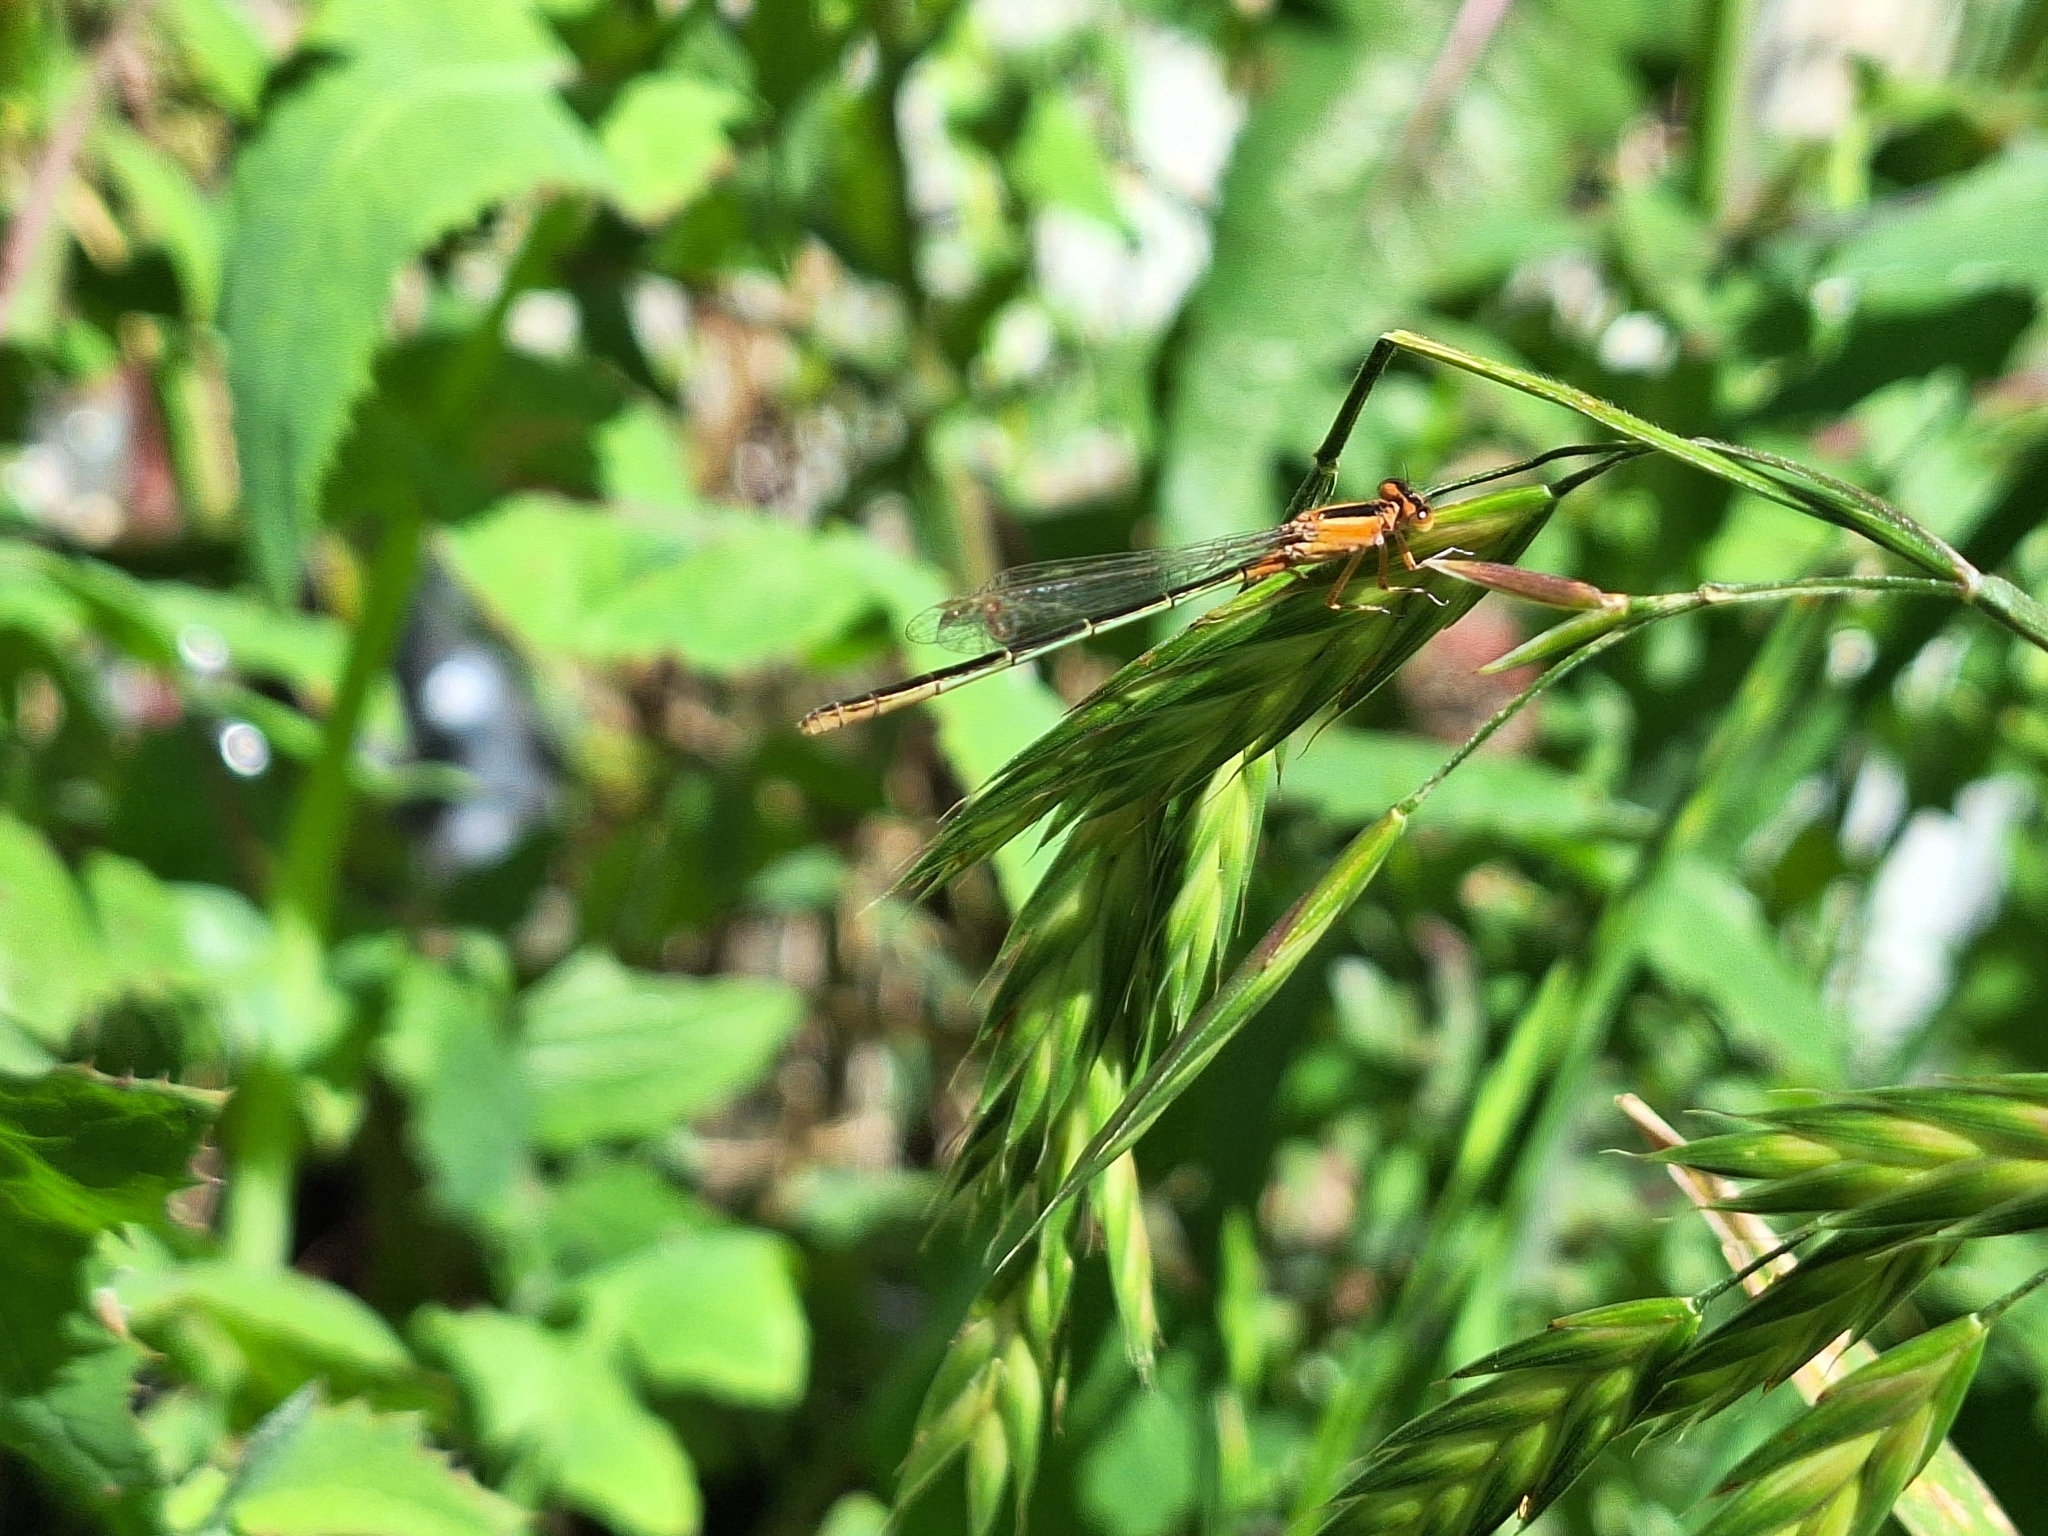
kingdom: Animalia
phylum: Arthropoda
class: Insecta
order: Odonata
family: Coenagrionidae
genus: Ischnura
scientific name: Ischnura fluviatilis
